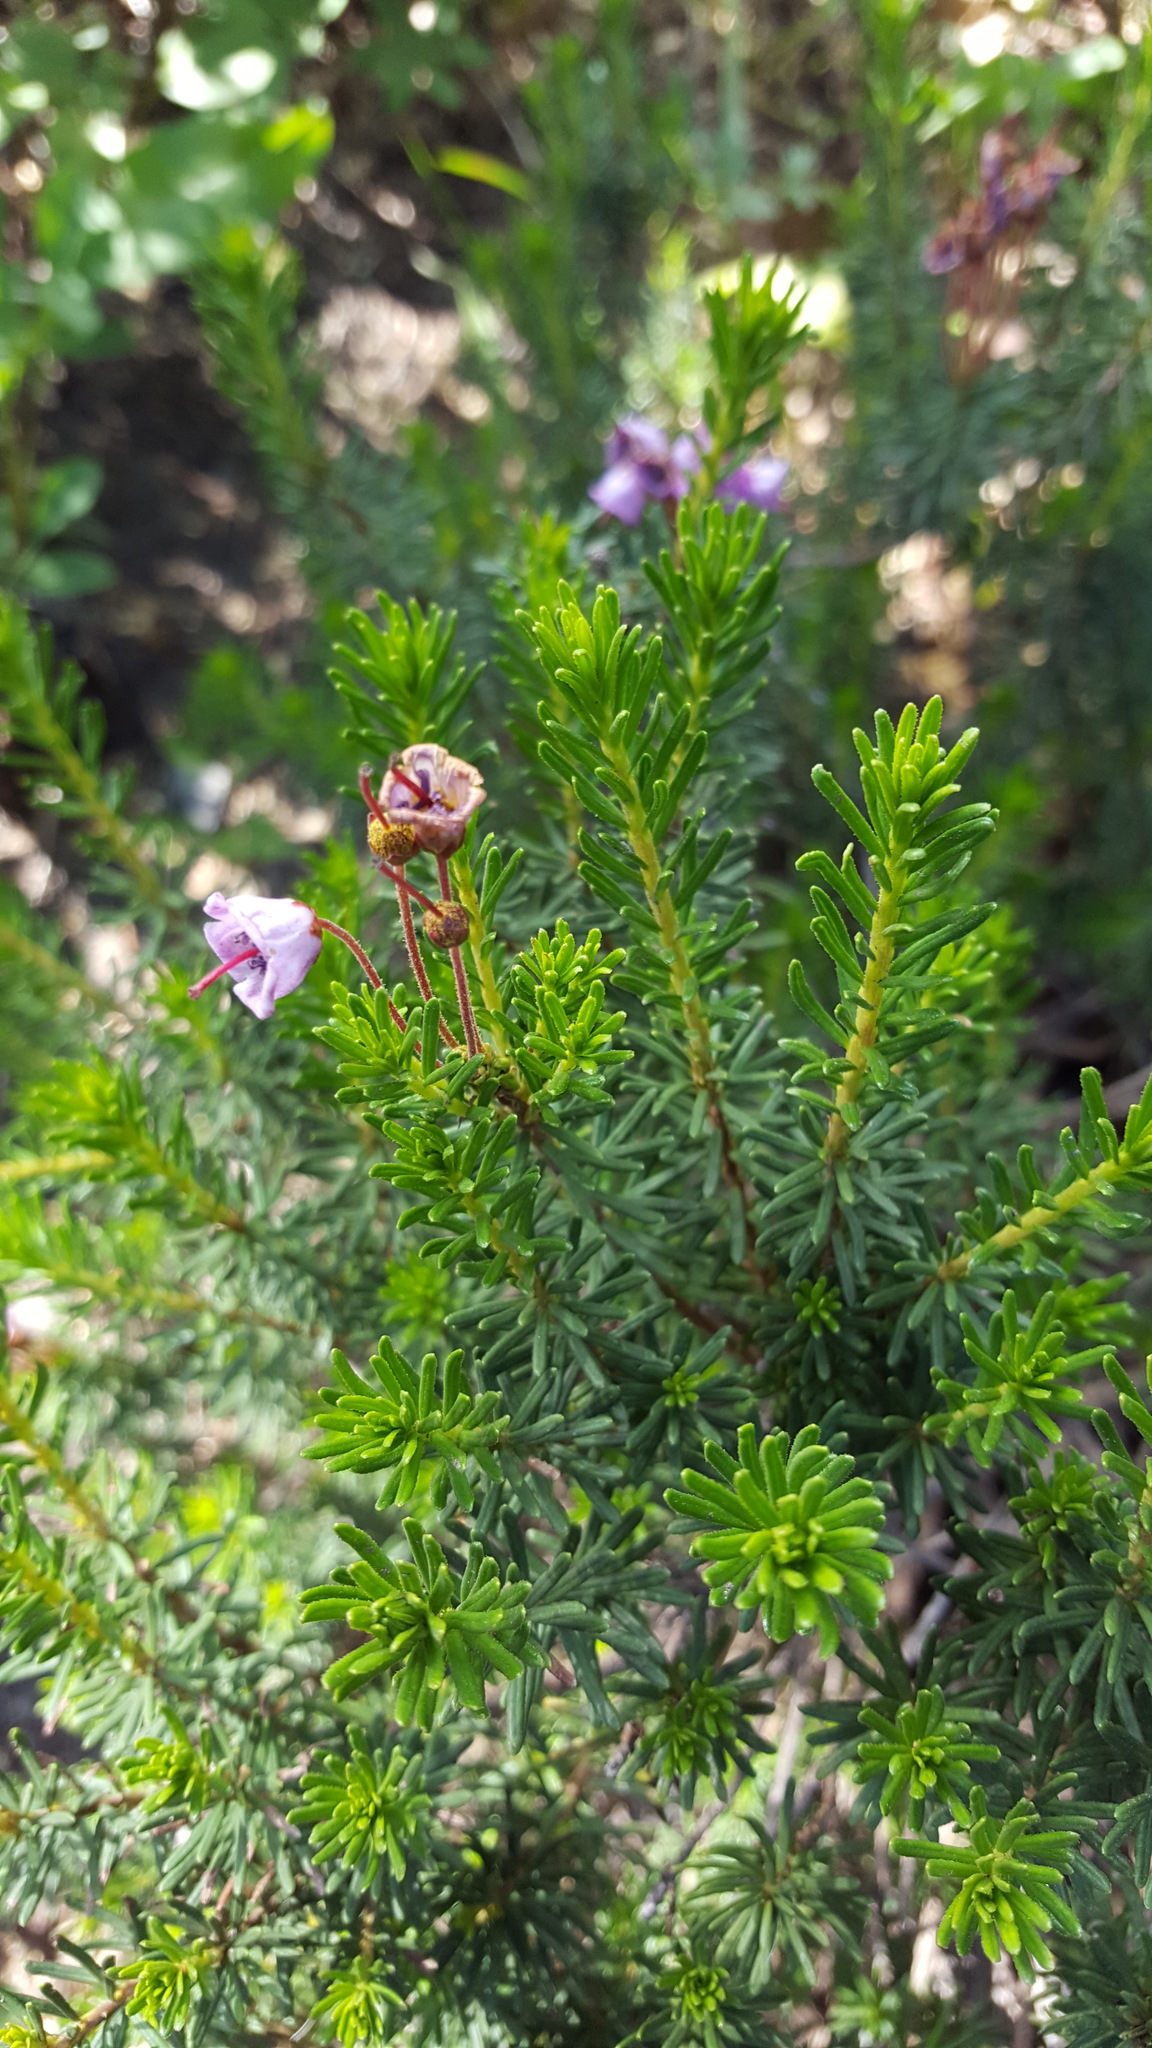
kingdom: Plantae
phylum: Tracheophyta
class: Magnoliopsida
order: Ericales
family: Ericaceae
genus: Phyllodoce
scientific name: Phyllodoce empetriformis
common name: Pink mountain heather
